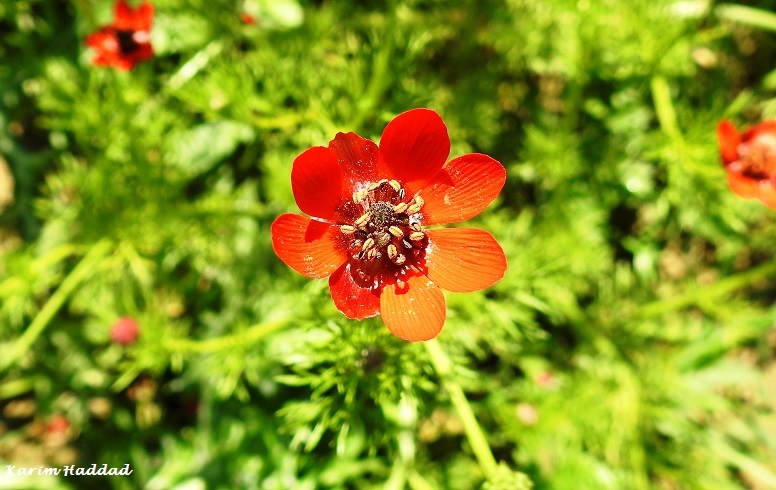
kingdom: Plantae
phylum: Tracheophyta
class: Magnoliopsida
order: Ranunculales
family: Ranunculaceae
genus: Adonis
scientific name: Adonis annua
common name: Pheasant's-eye
